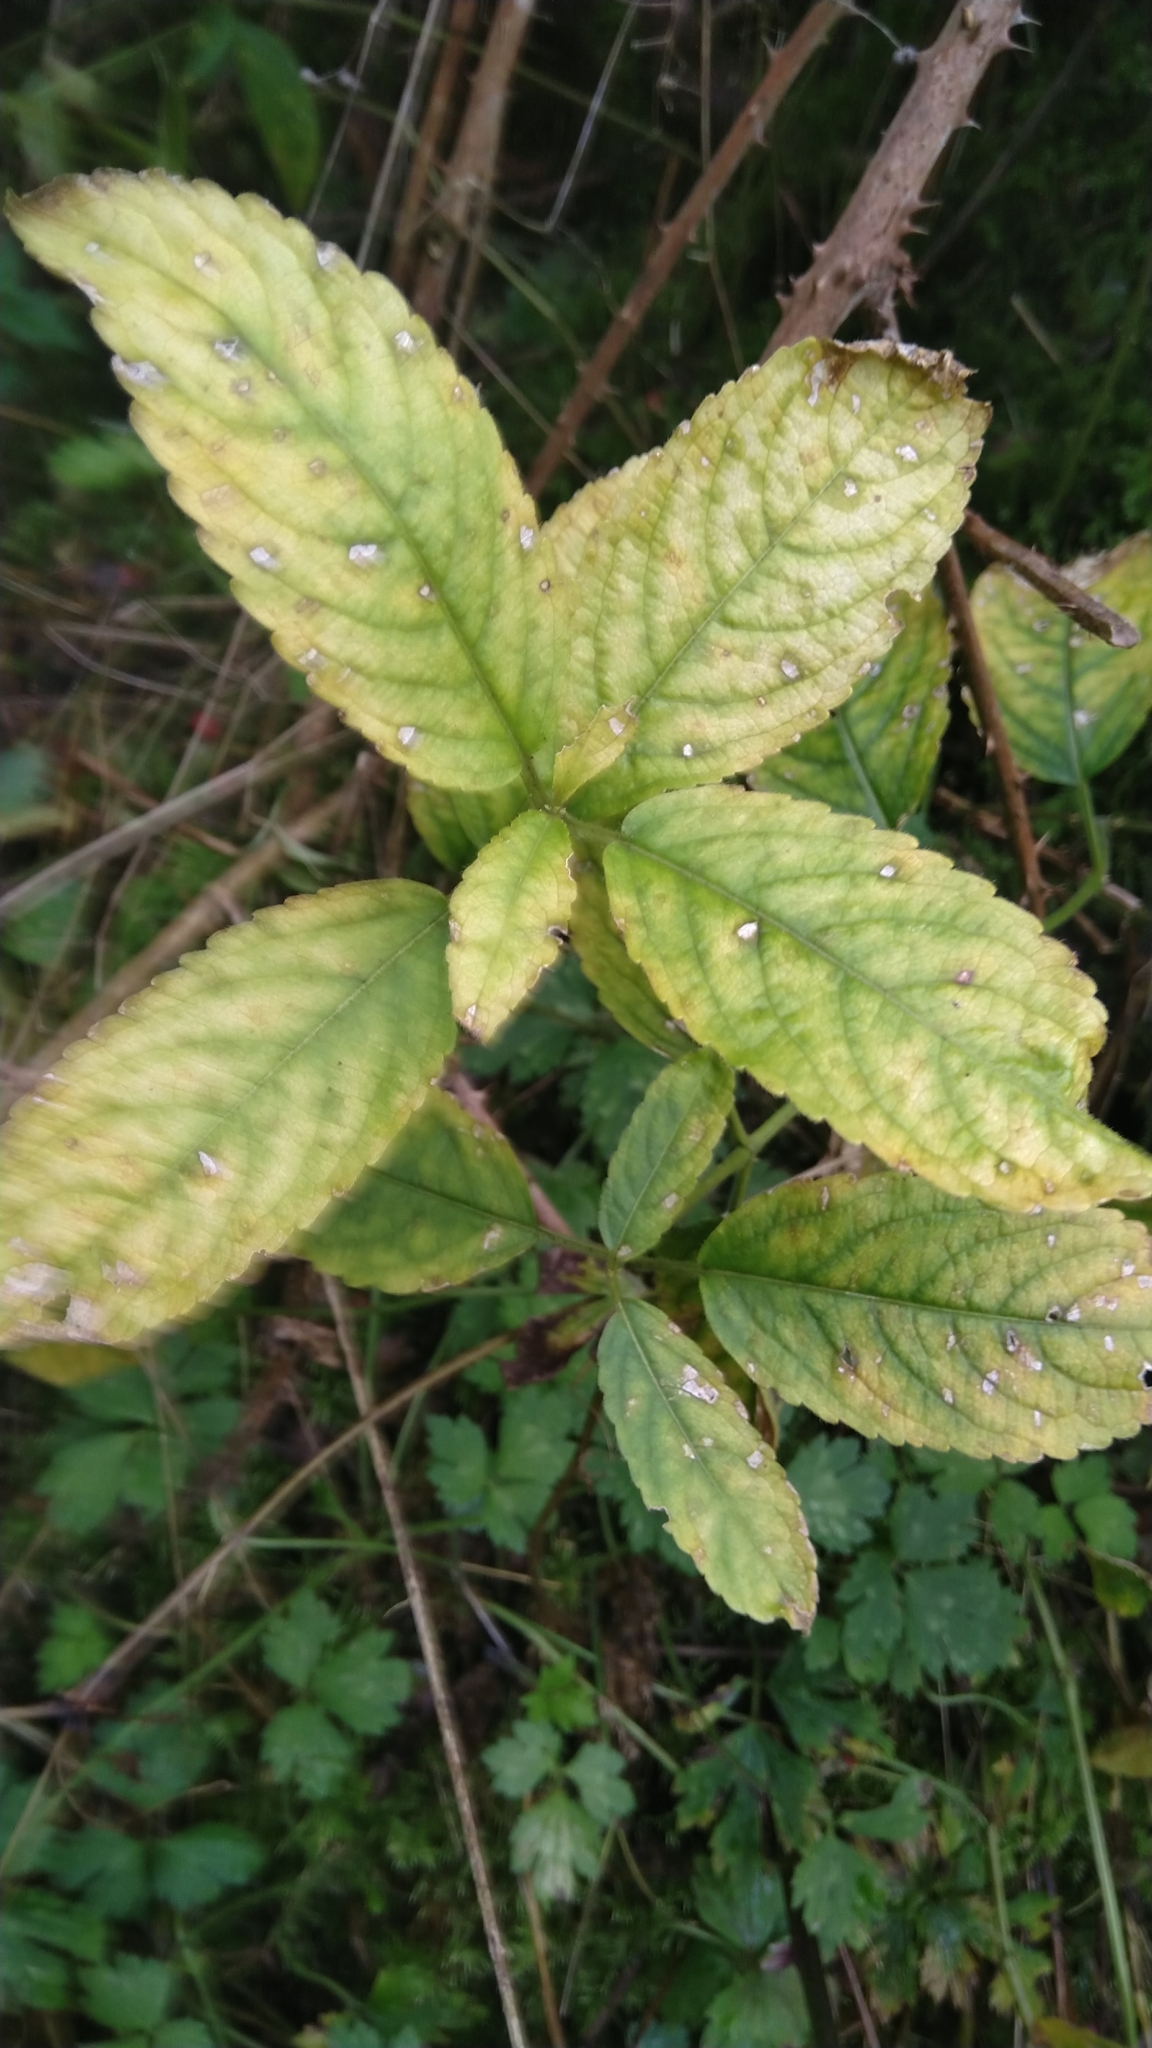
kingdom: Plantae
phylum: Tracheophyta
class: Magnoliopsida
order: Malpighiales
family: Euphorbiaceae
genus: Mercurialis
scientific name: Mercurialis perennis
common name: Dog mercury
